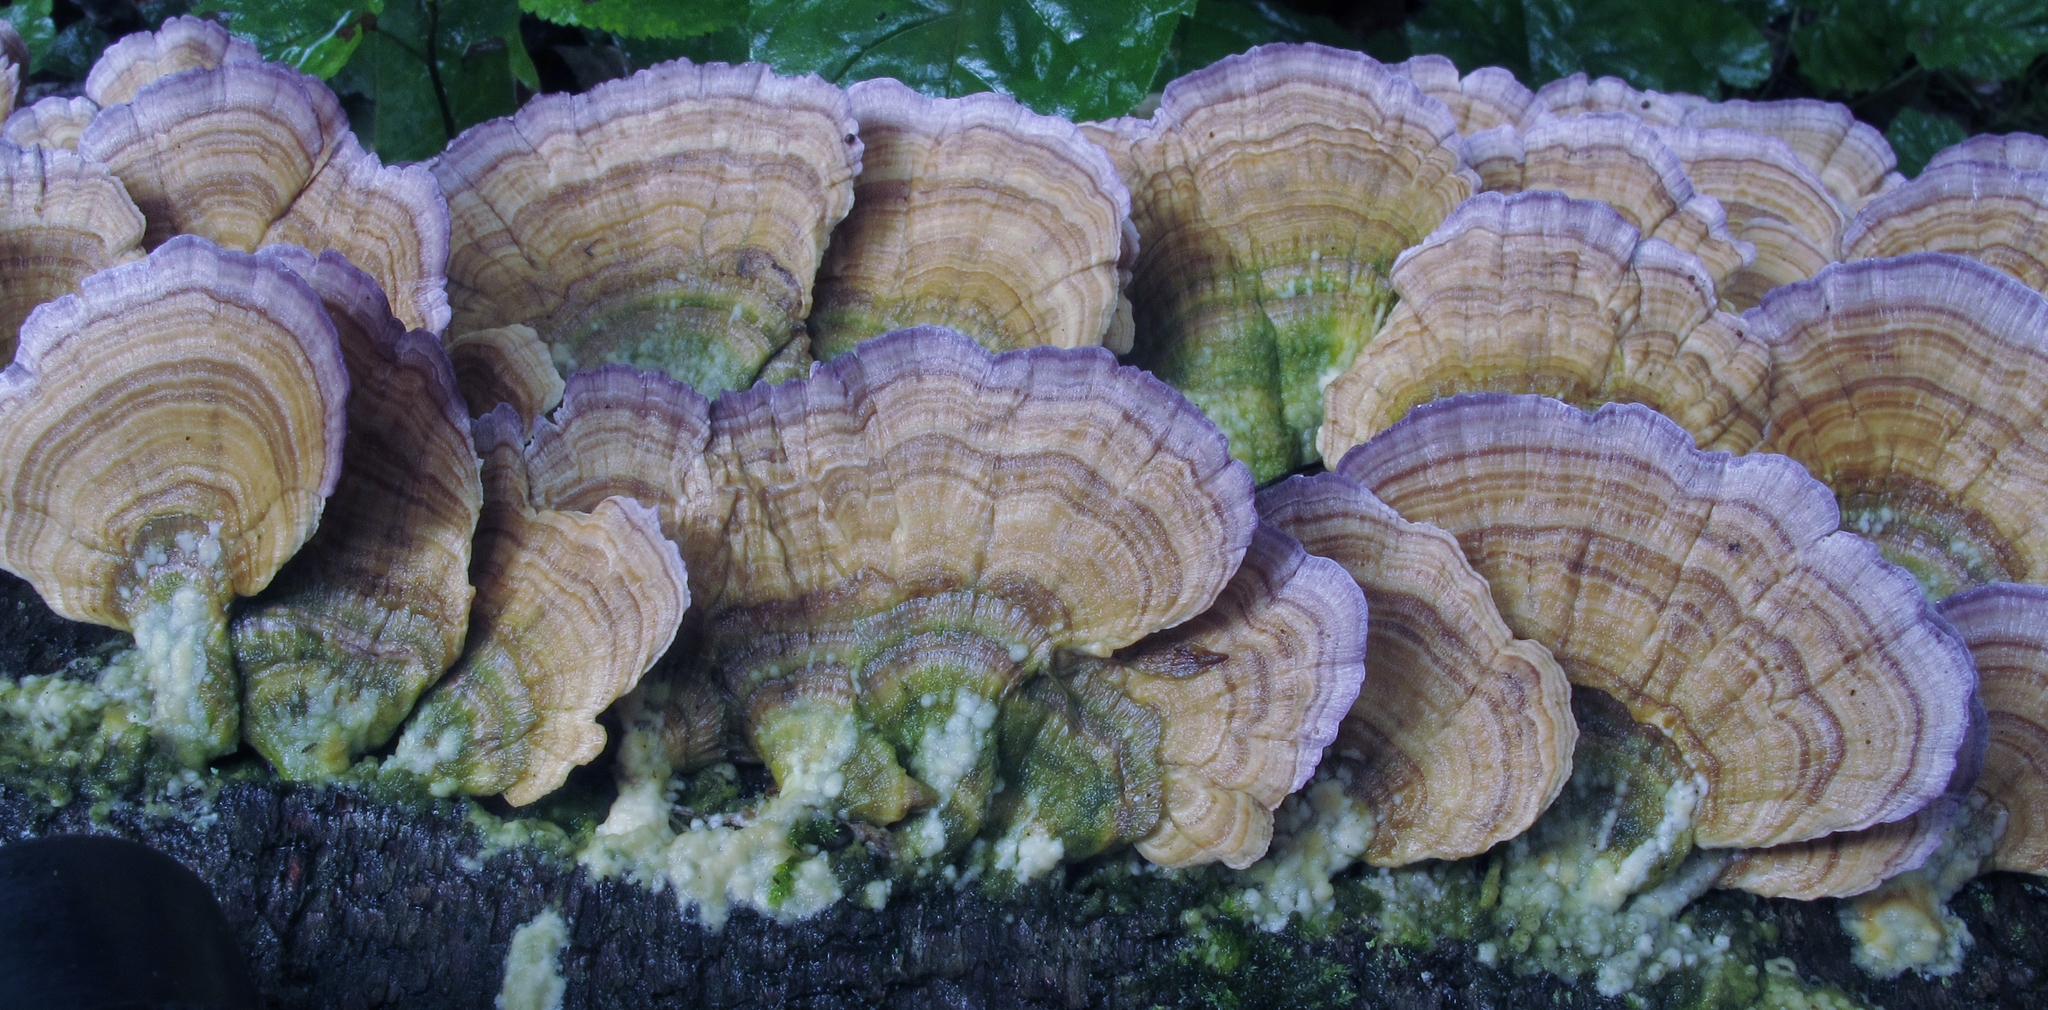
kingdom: Fungi
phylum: Basidiomycota
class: Agaricomycetes
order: Hymenochaetales
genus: Trichaptum
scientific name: Trichaptum biforme
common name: Violet-toothed polypore
